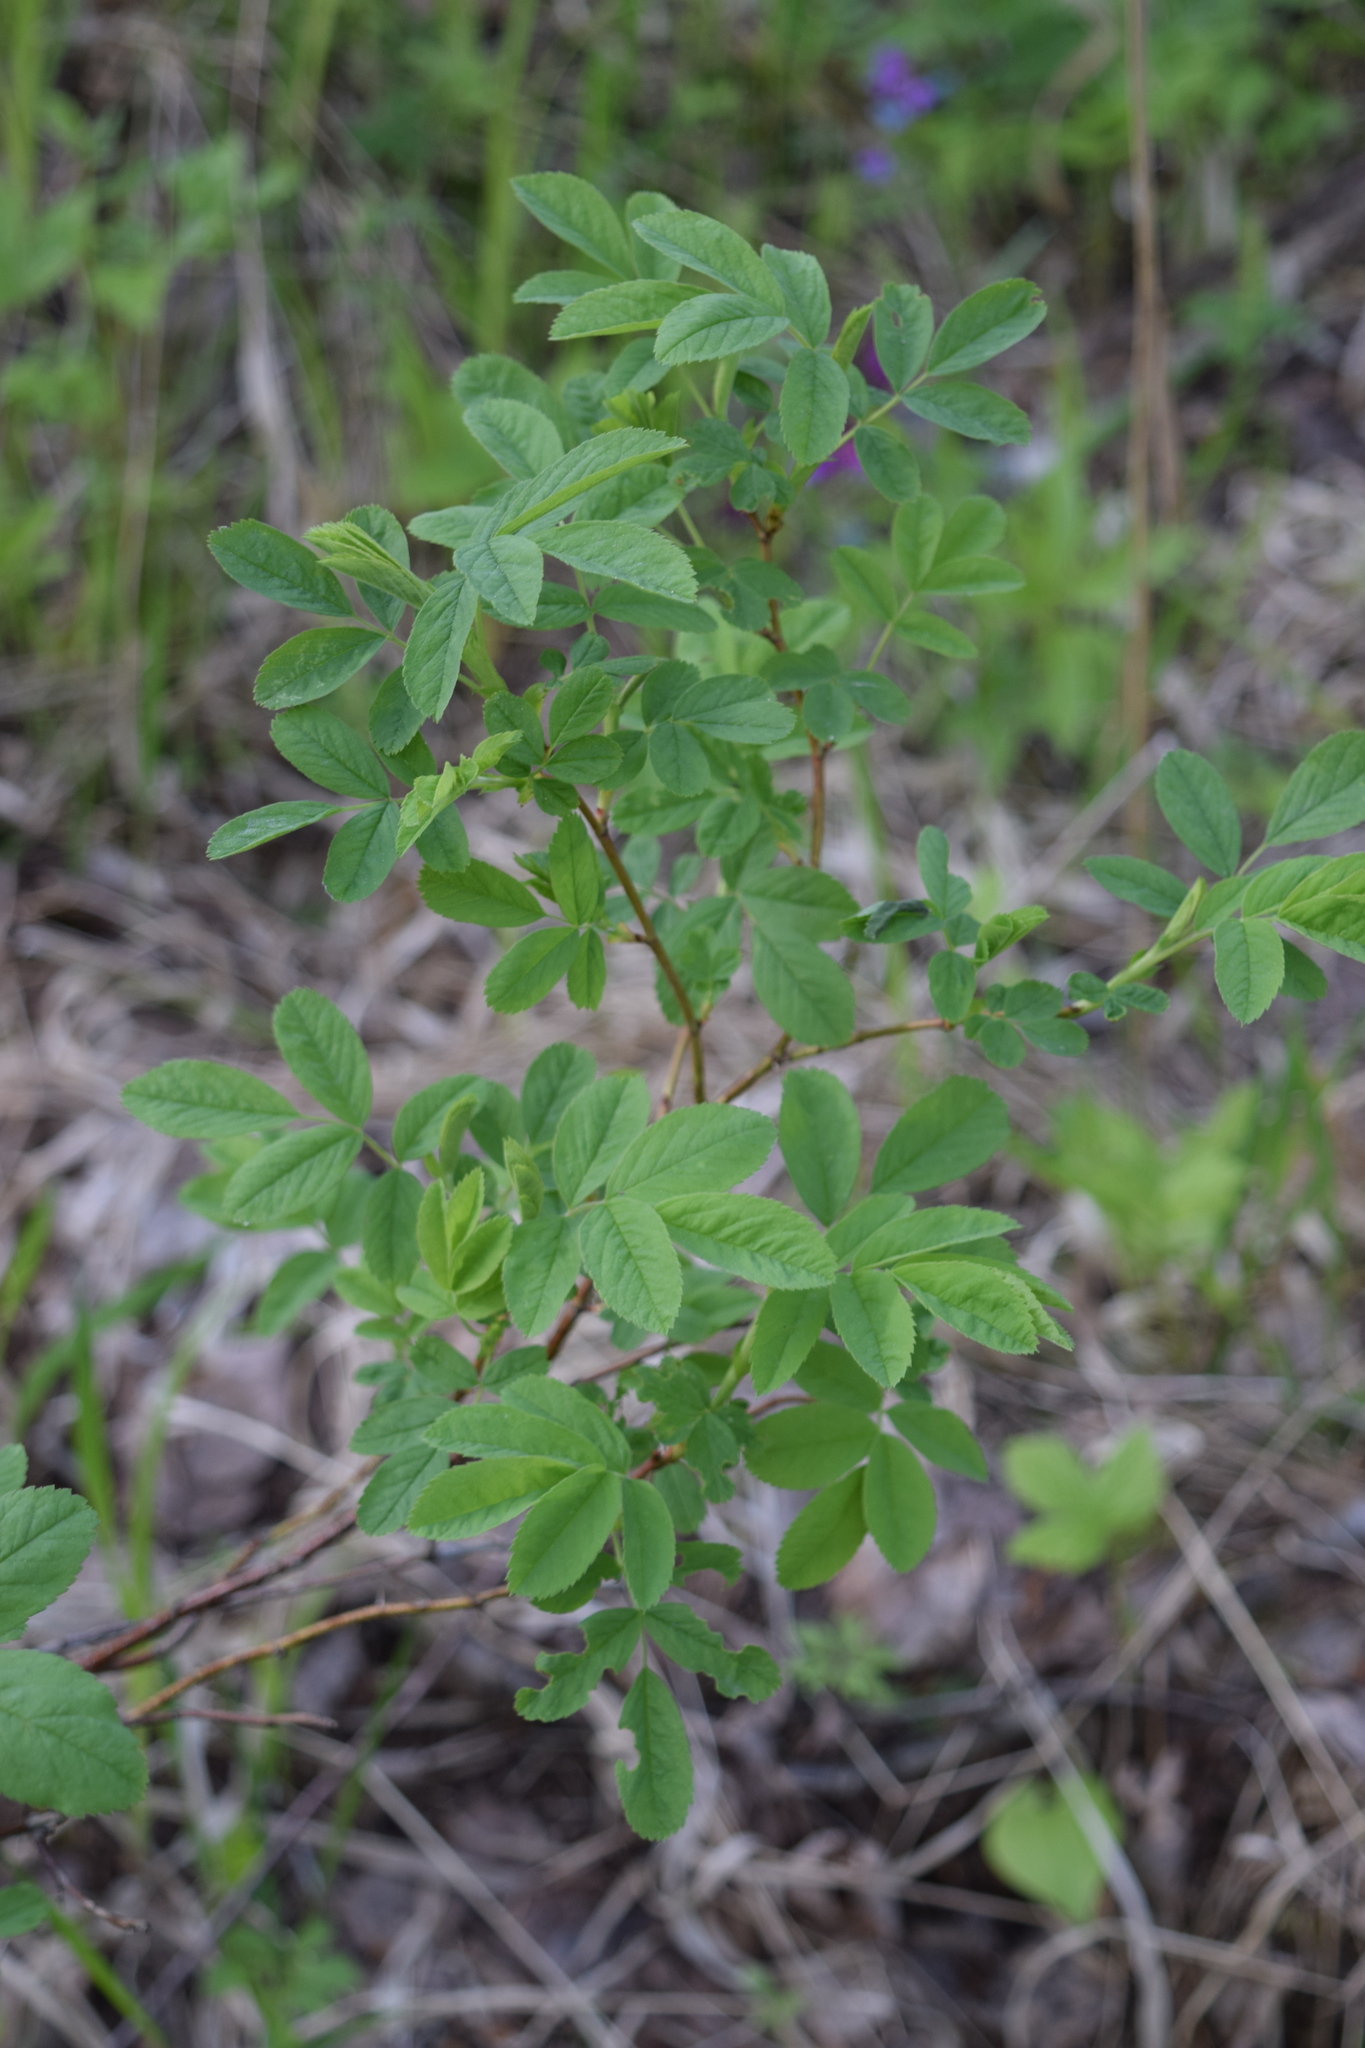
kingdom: Plantae
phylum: Tracheophyta
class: Magnoliopsida
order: Rosales
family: Rosaceae
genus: Rosa
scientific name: Rosa
